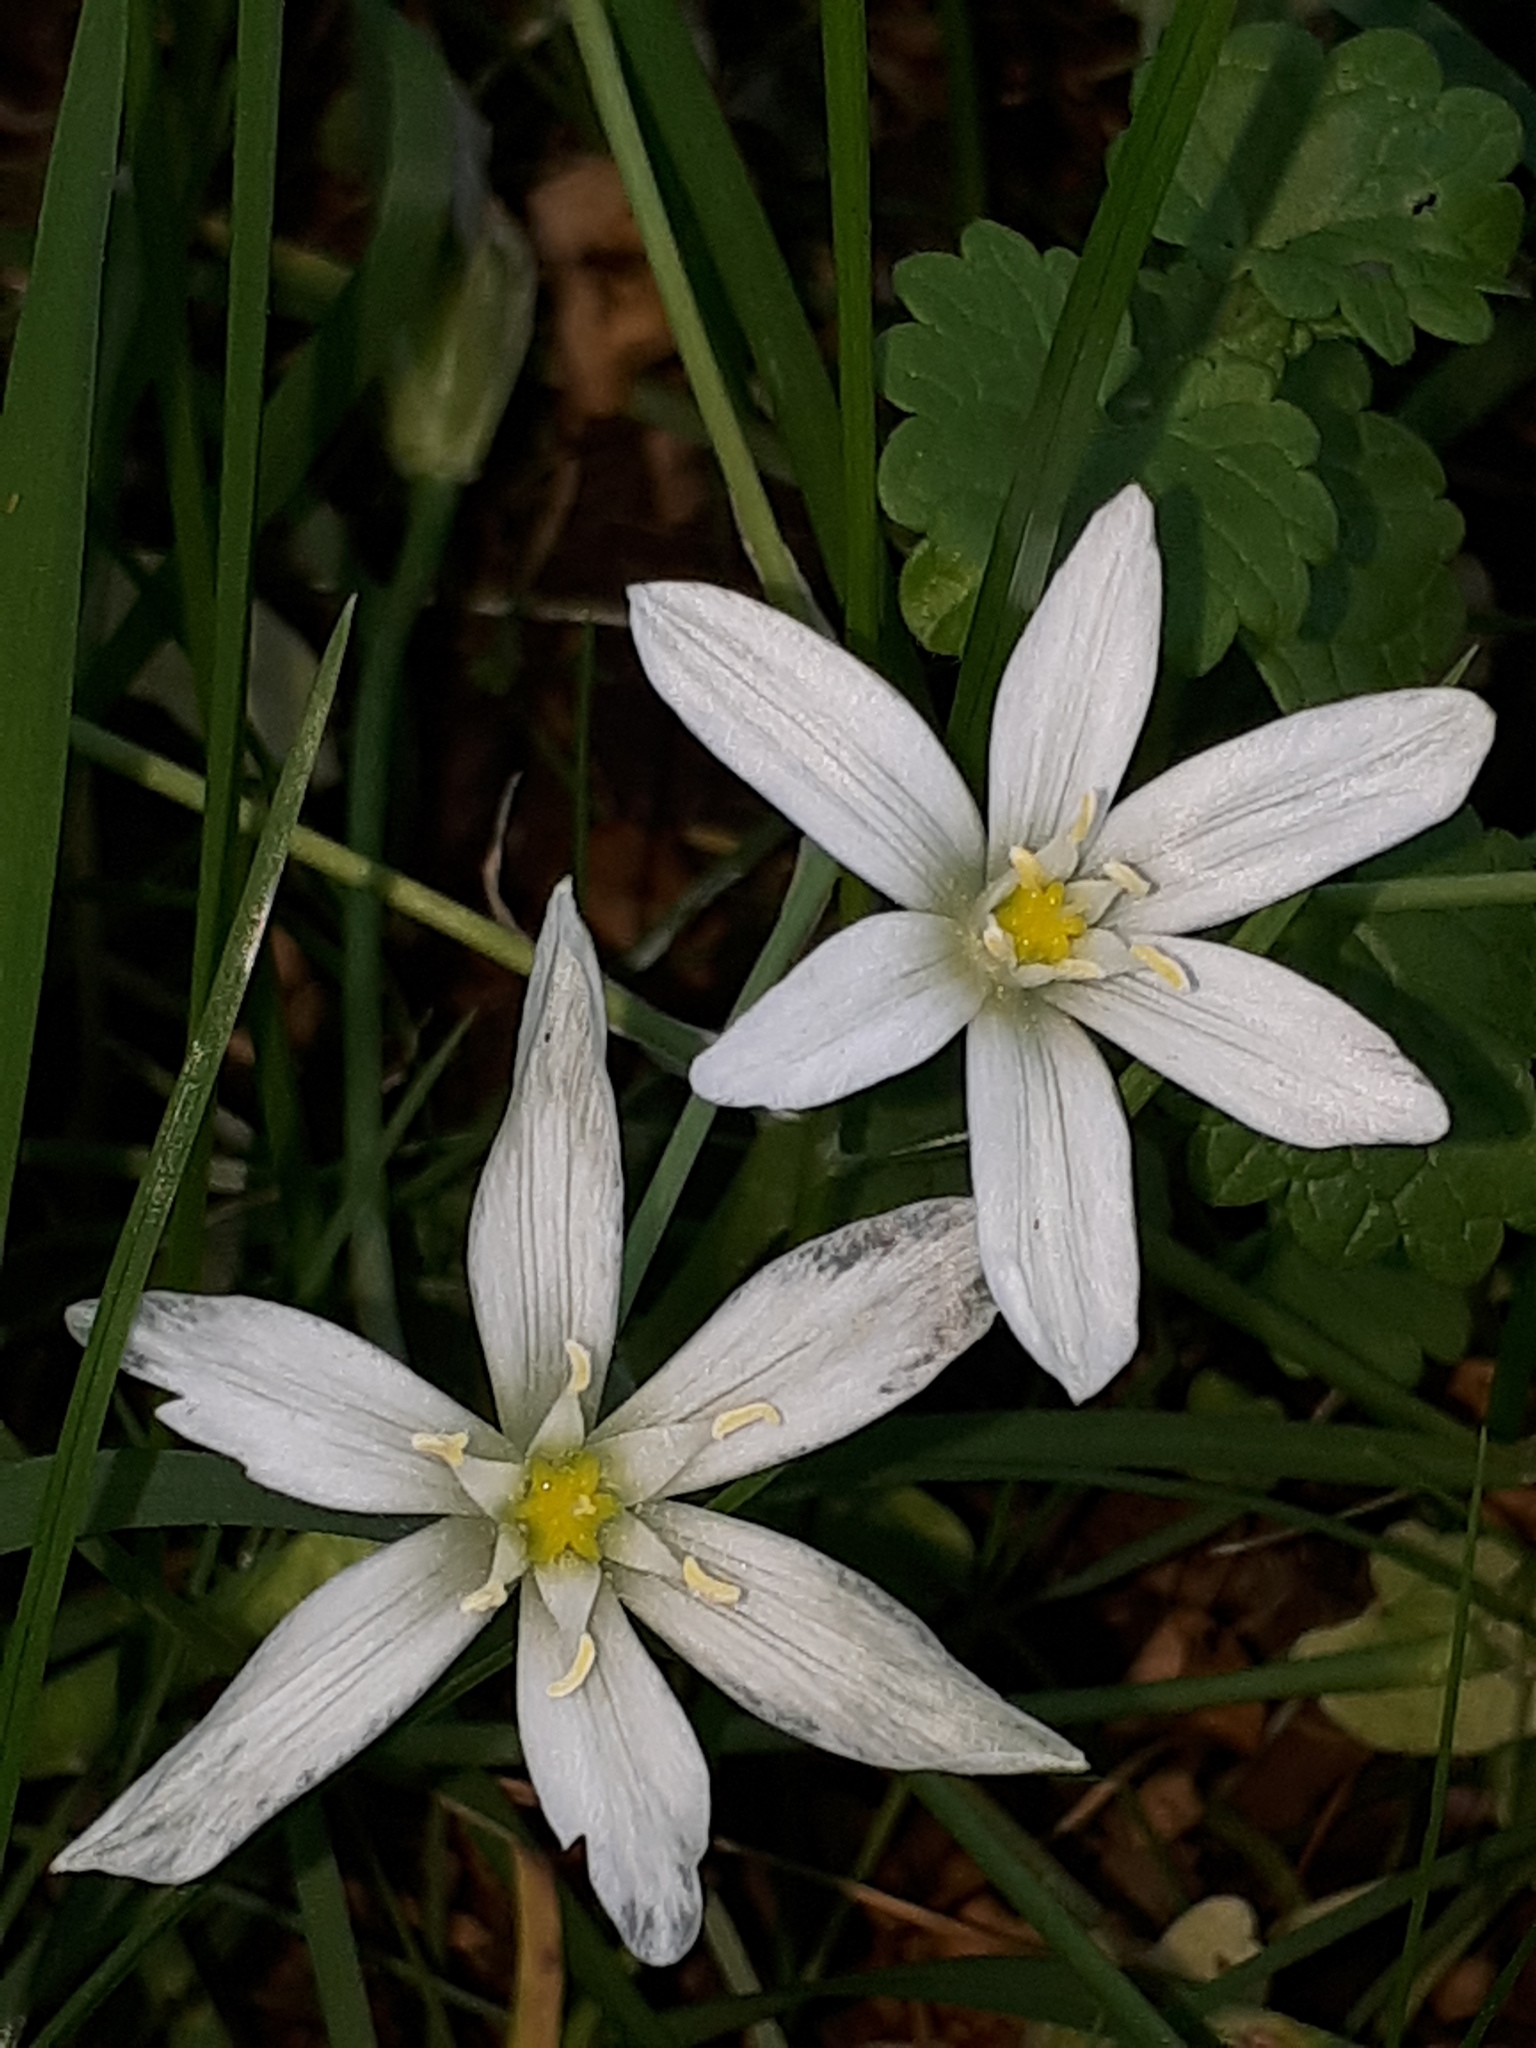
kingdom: Plantae
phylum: Tracheophyta
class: Liliopsida
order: Asparagales
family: Asparagaceae
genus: Ornithogalum
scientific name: Ornithogalum umbellatum
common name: Garden star-of-bethlehem
